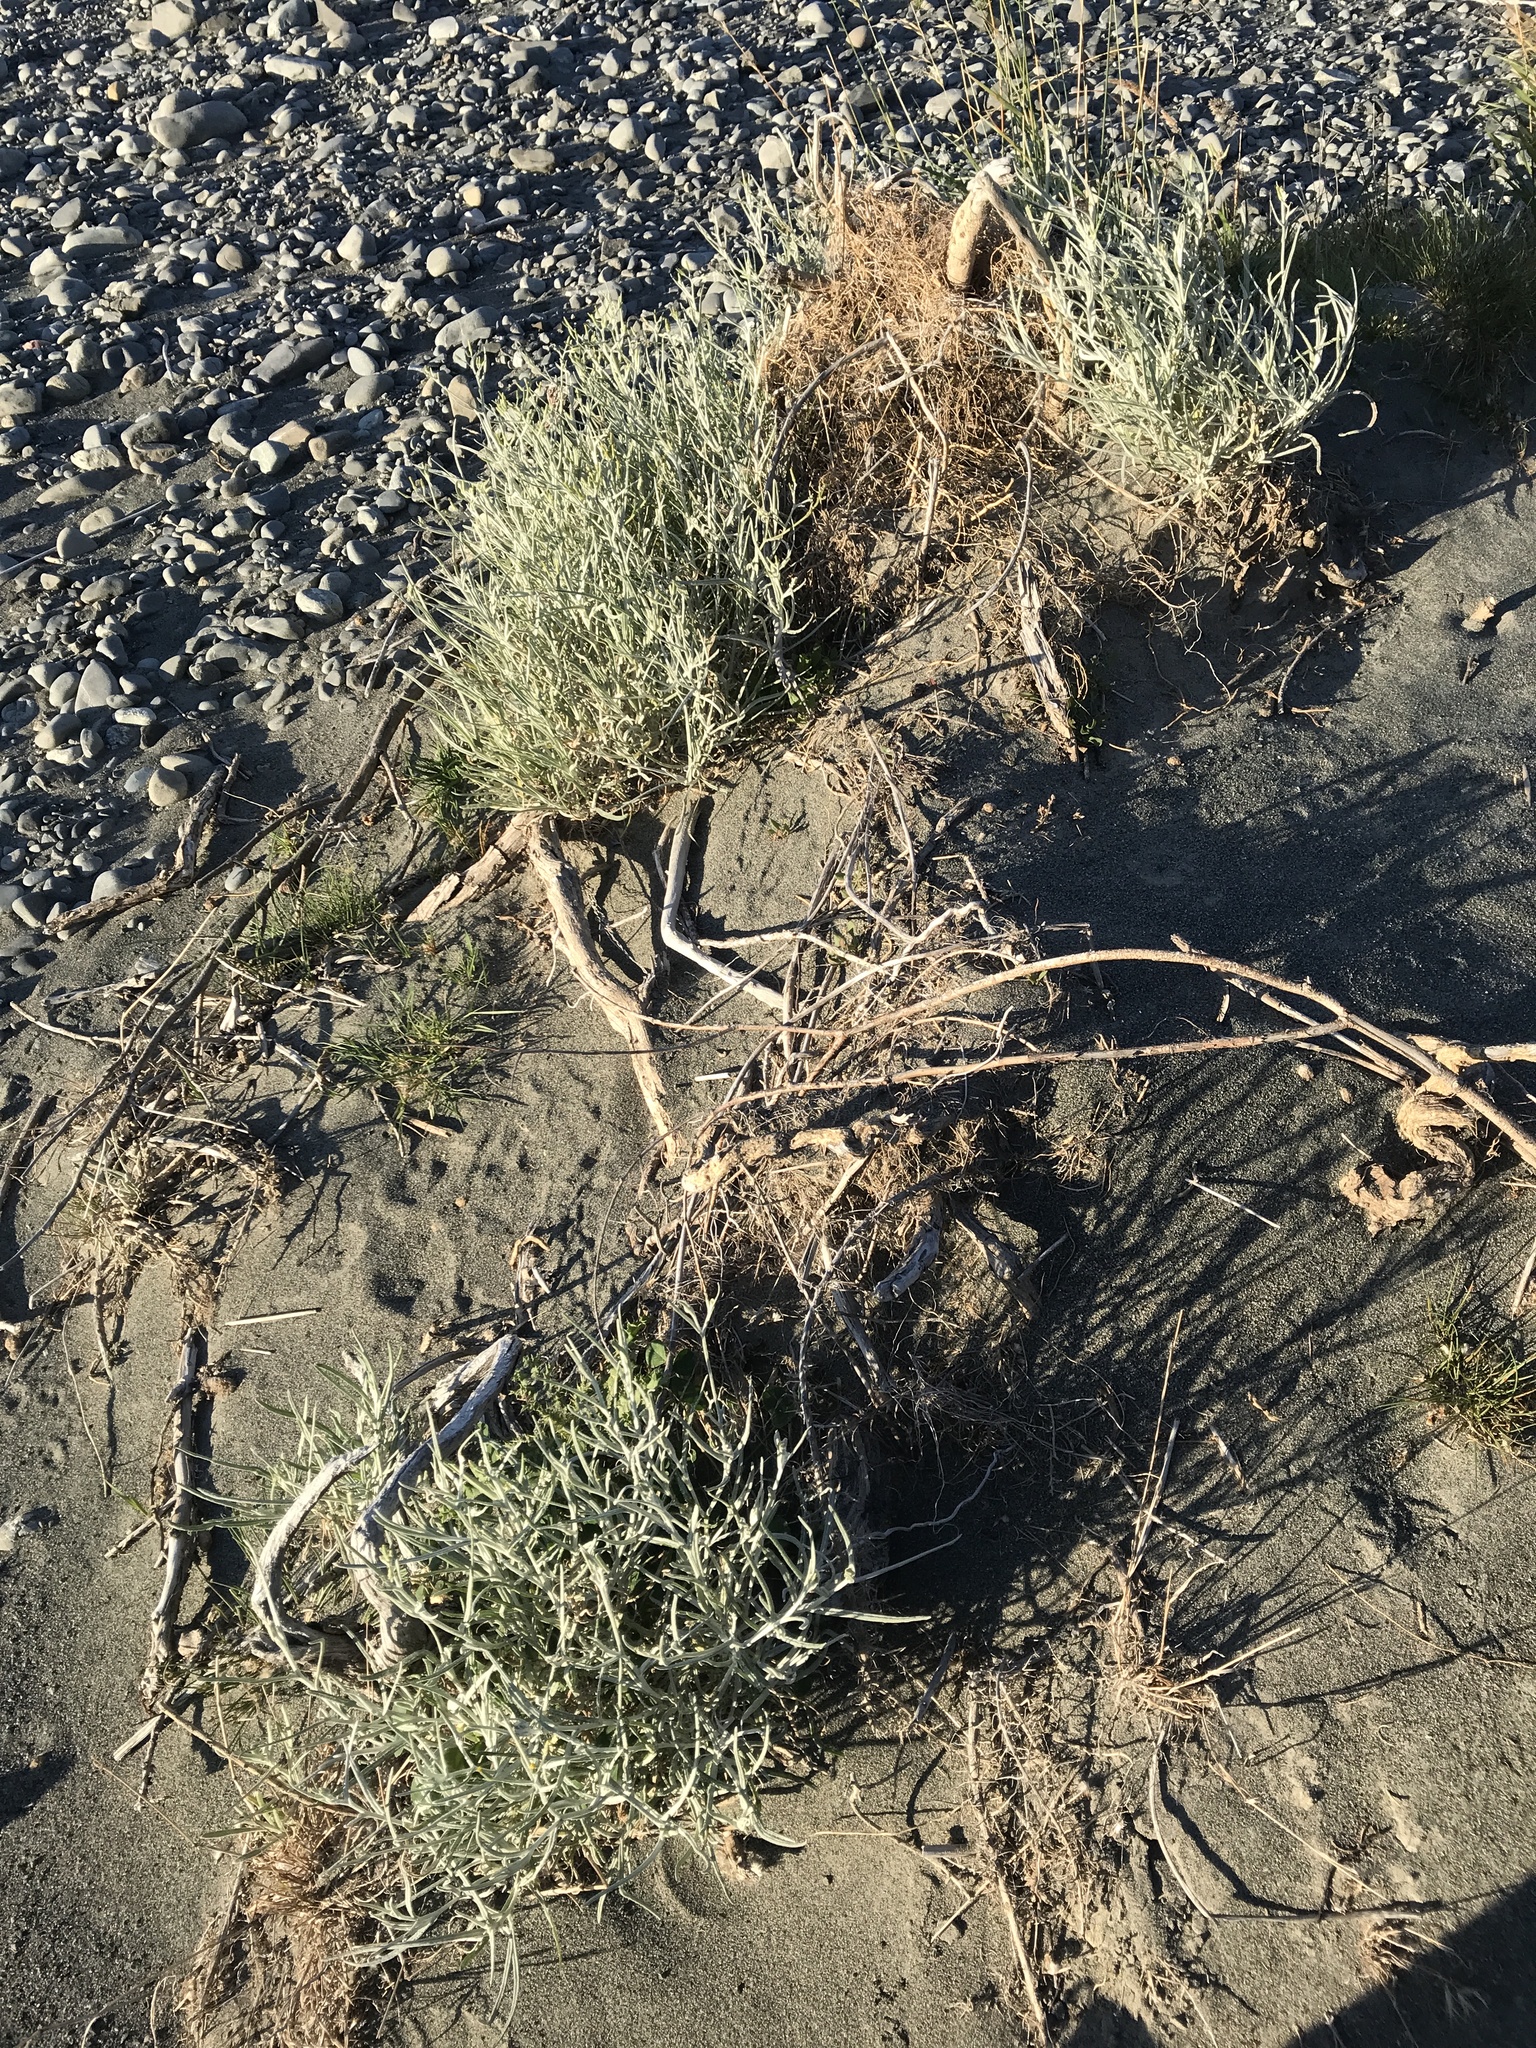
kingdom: Plantae
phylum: Tracheophyta
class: Magnoliopsida
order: Asterales
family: Asteraceae
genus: Senecio
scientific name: Senecio quadridentatus
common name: Cotton fireweed
